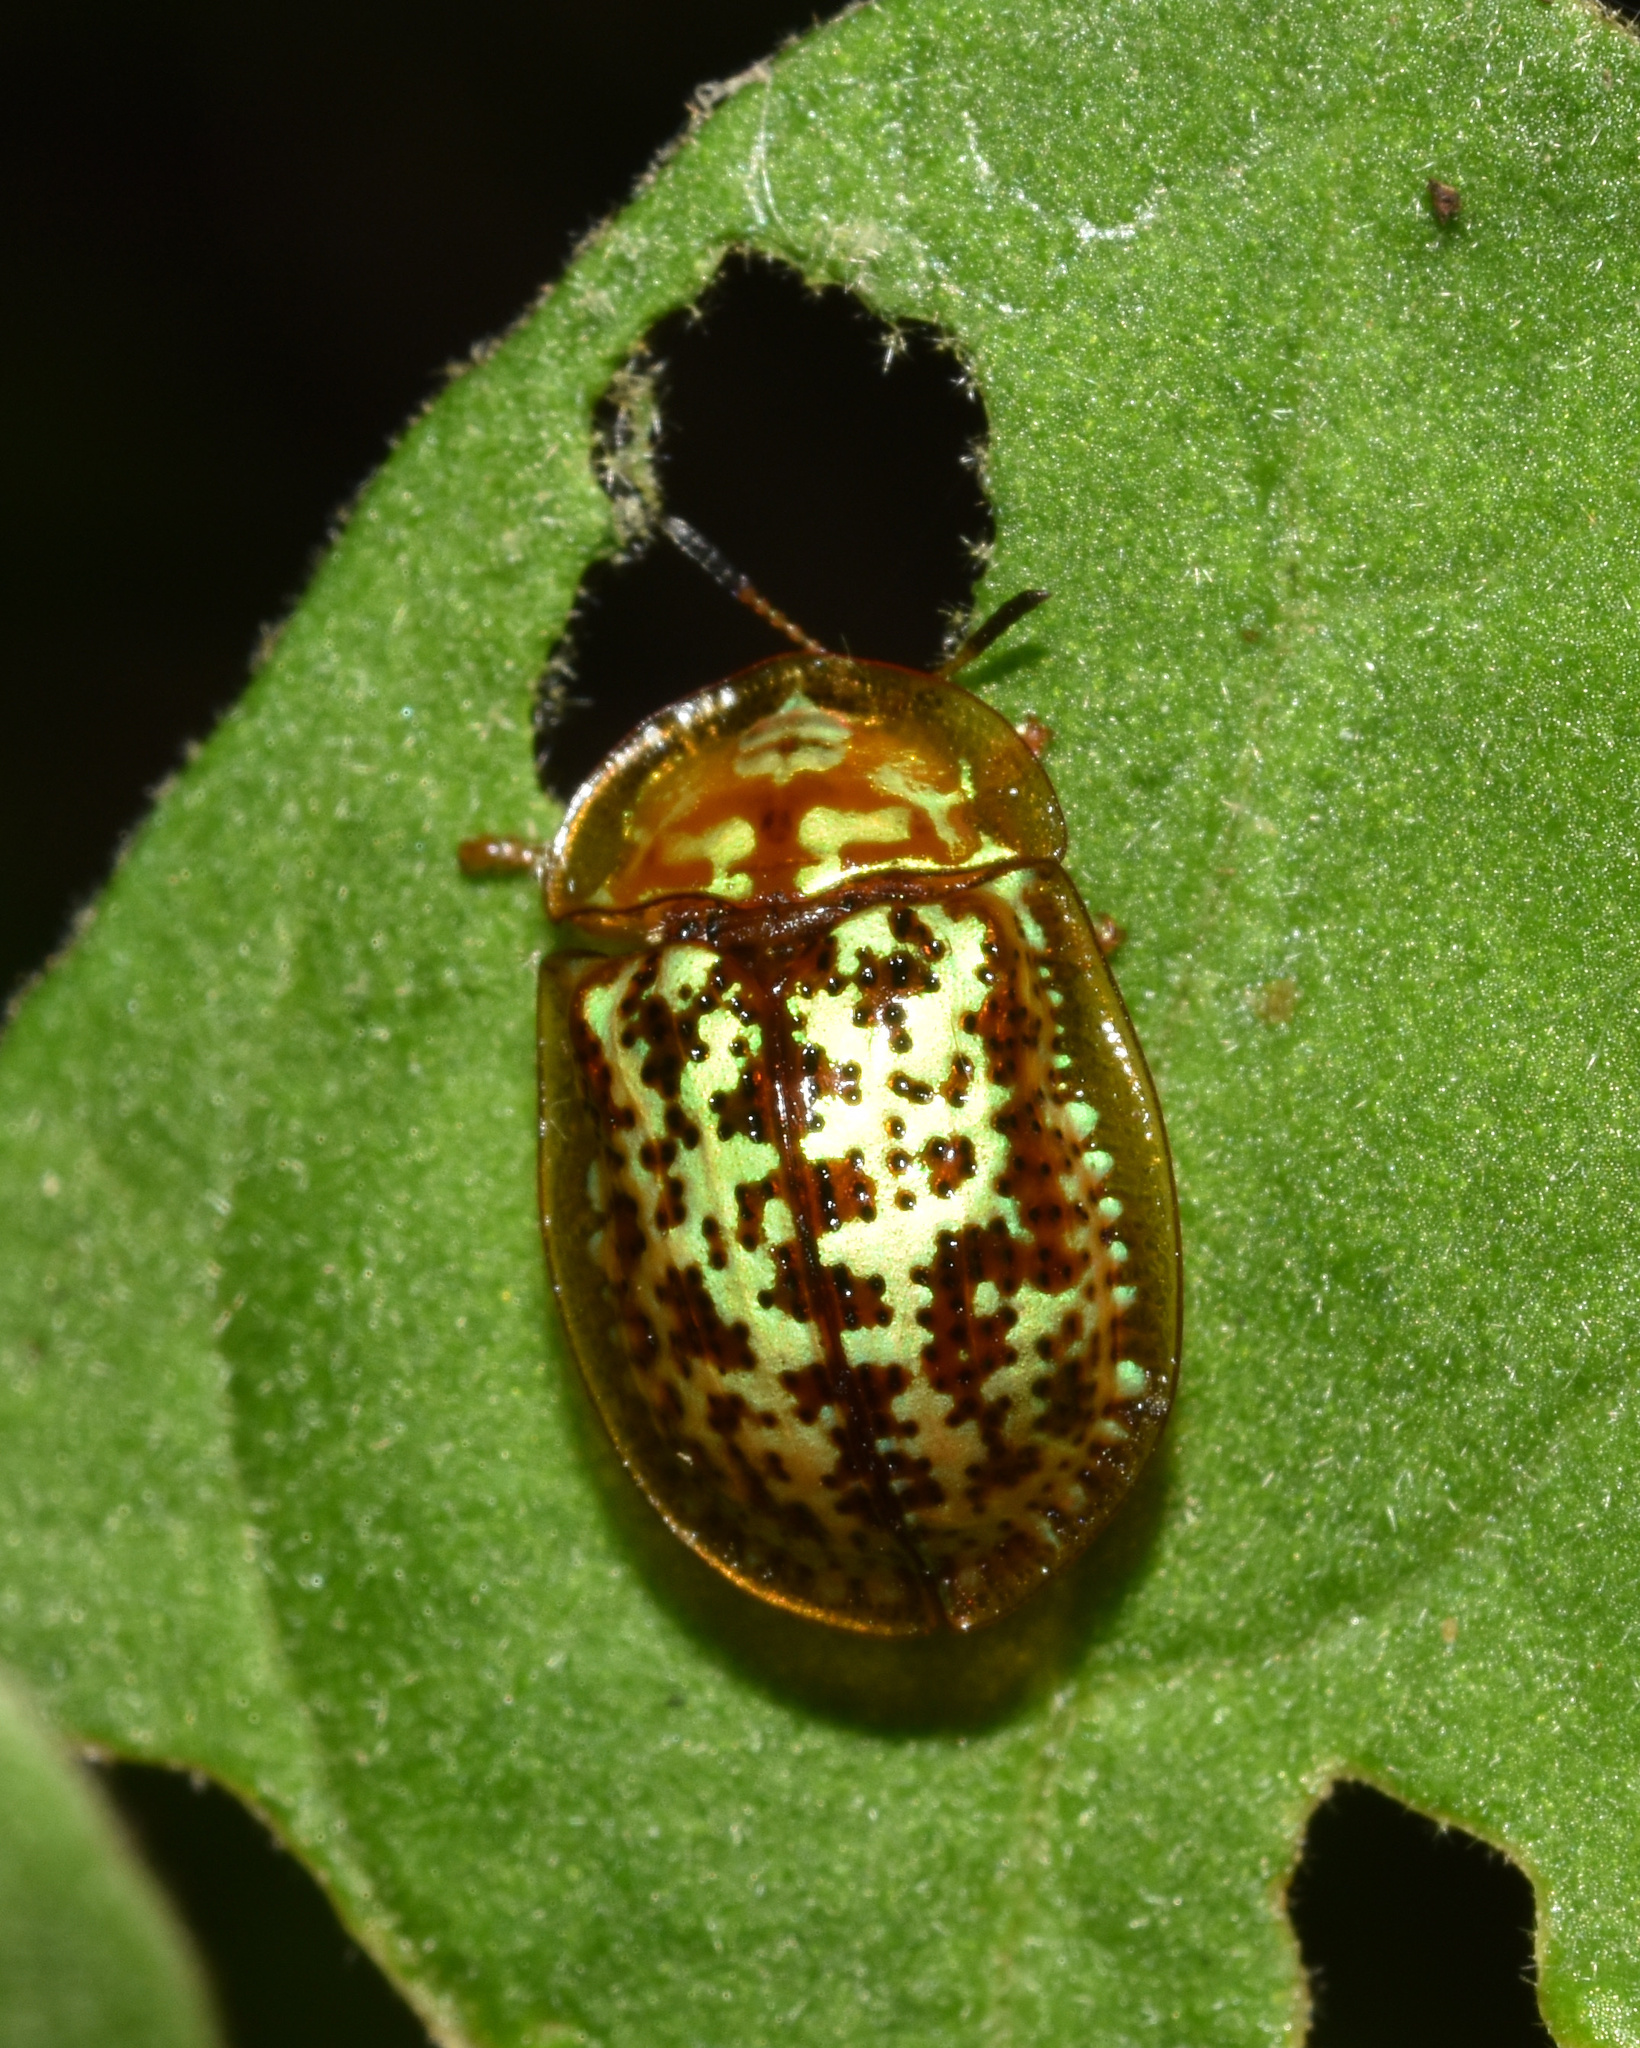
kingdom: Animalia
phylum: Arthropoda
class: Insecta
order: Coleoptera
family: Chrysomelidae
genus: Conchyloctenia
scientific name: Conchyloctenia hybrida
